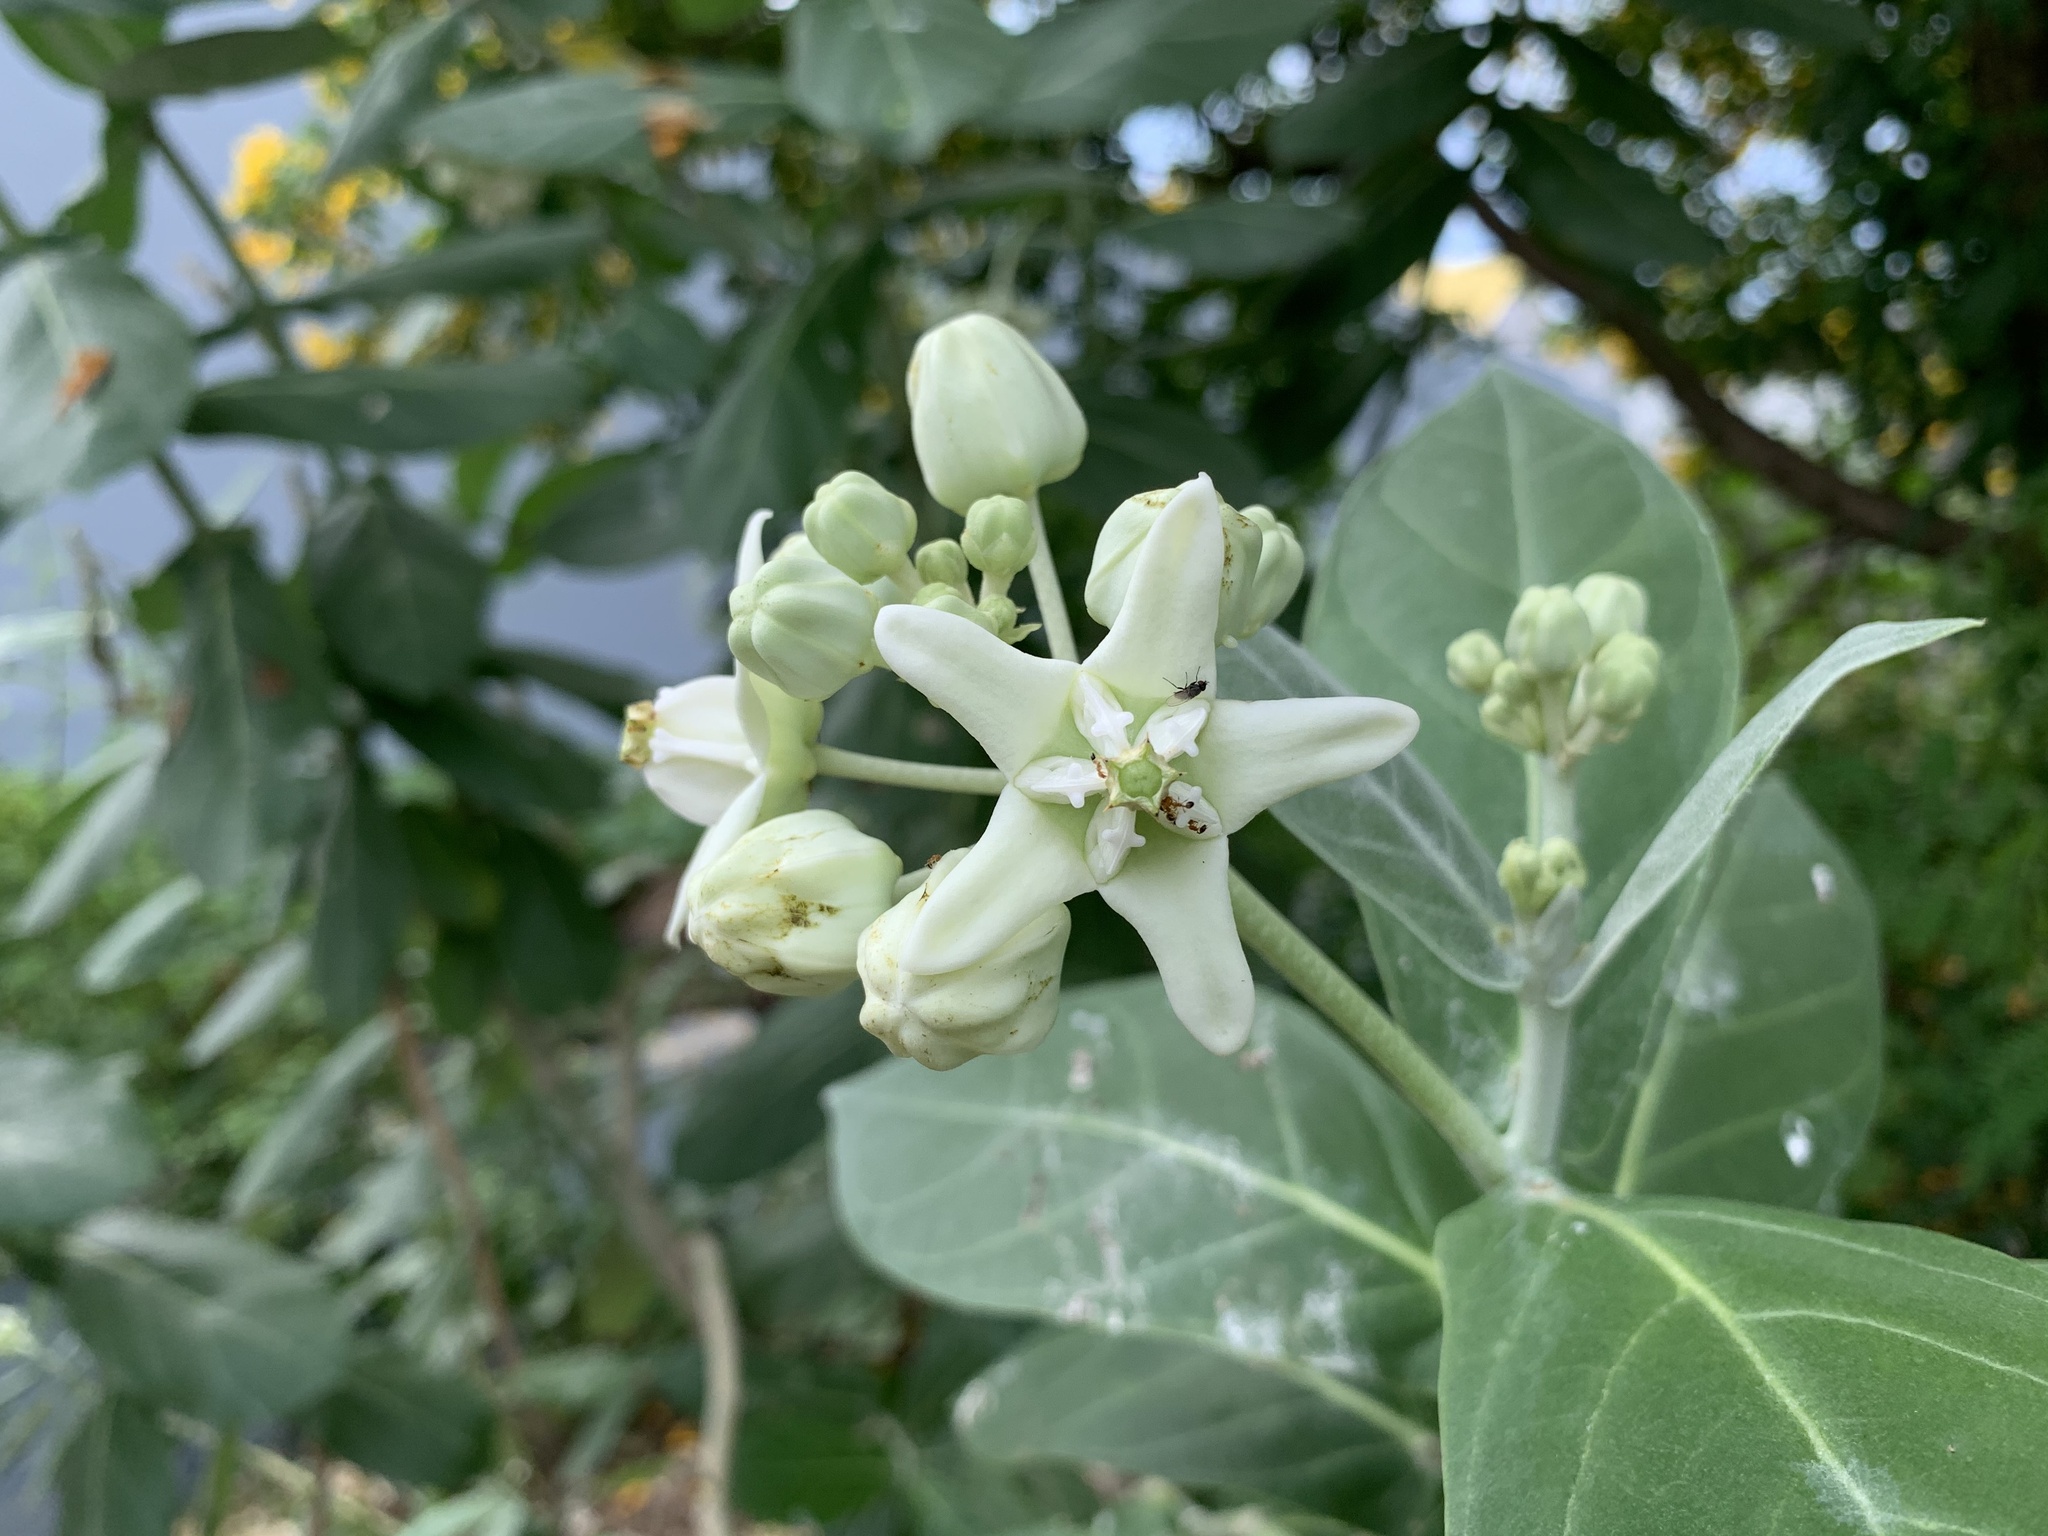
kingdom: Plantae
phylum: Tracheophyta
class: Magnoliopsida
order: Gentianales
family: Apocynaceae
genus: Calotropis
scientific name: Calotropis gigantea
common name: Crown flower
